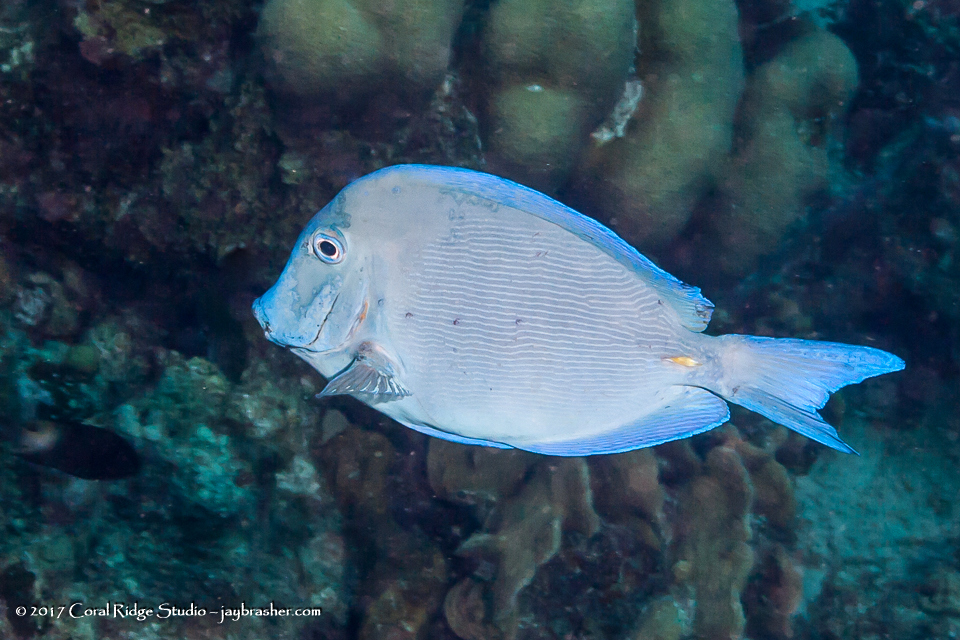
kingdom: Animalia
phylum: Chordata
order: Perciformes
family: Acanthuridae
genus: Acanthurus
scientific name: Acanthurus coeruleus
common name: Blue tang
